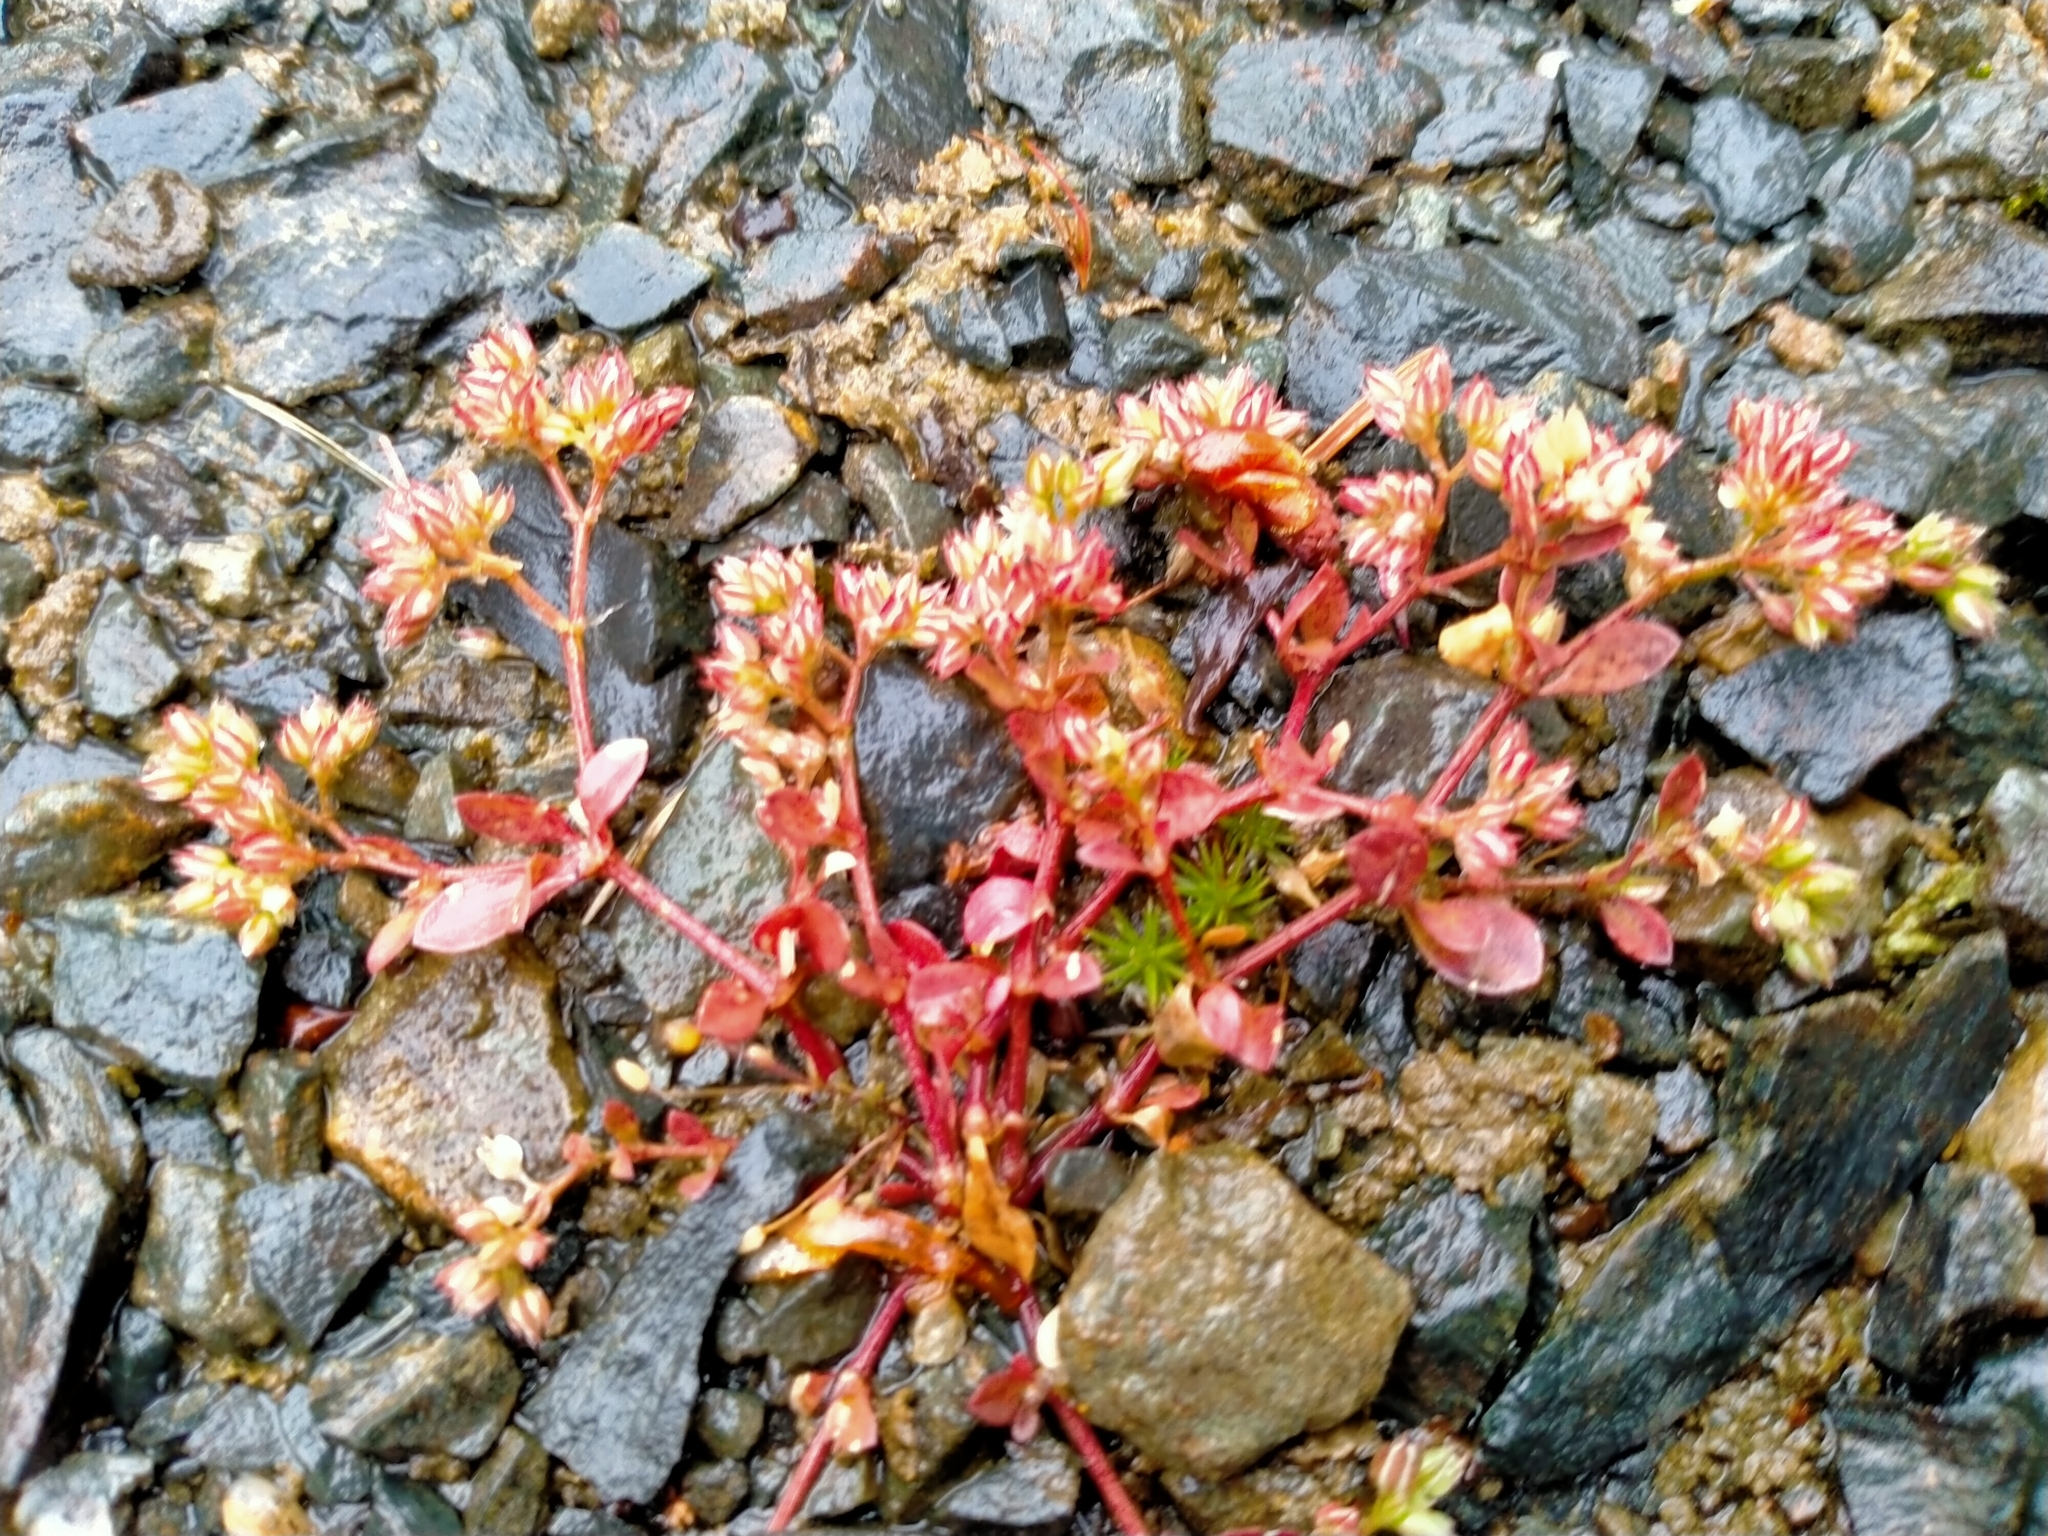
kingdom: Plantae
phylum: Tracheophyta
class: Magnoliopsida
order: Caryophyllales
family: Caryophyllaceae
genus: Polycarpon
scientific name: Polycarpon tetraphyllum
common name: Four-leaved all-seed
